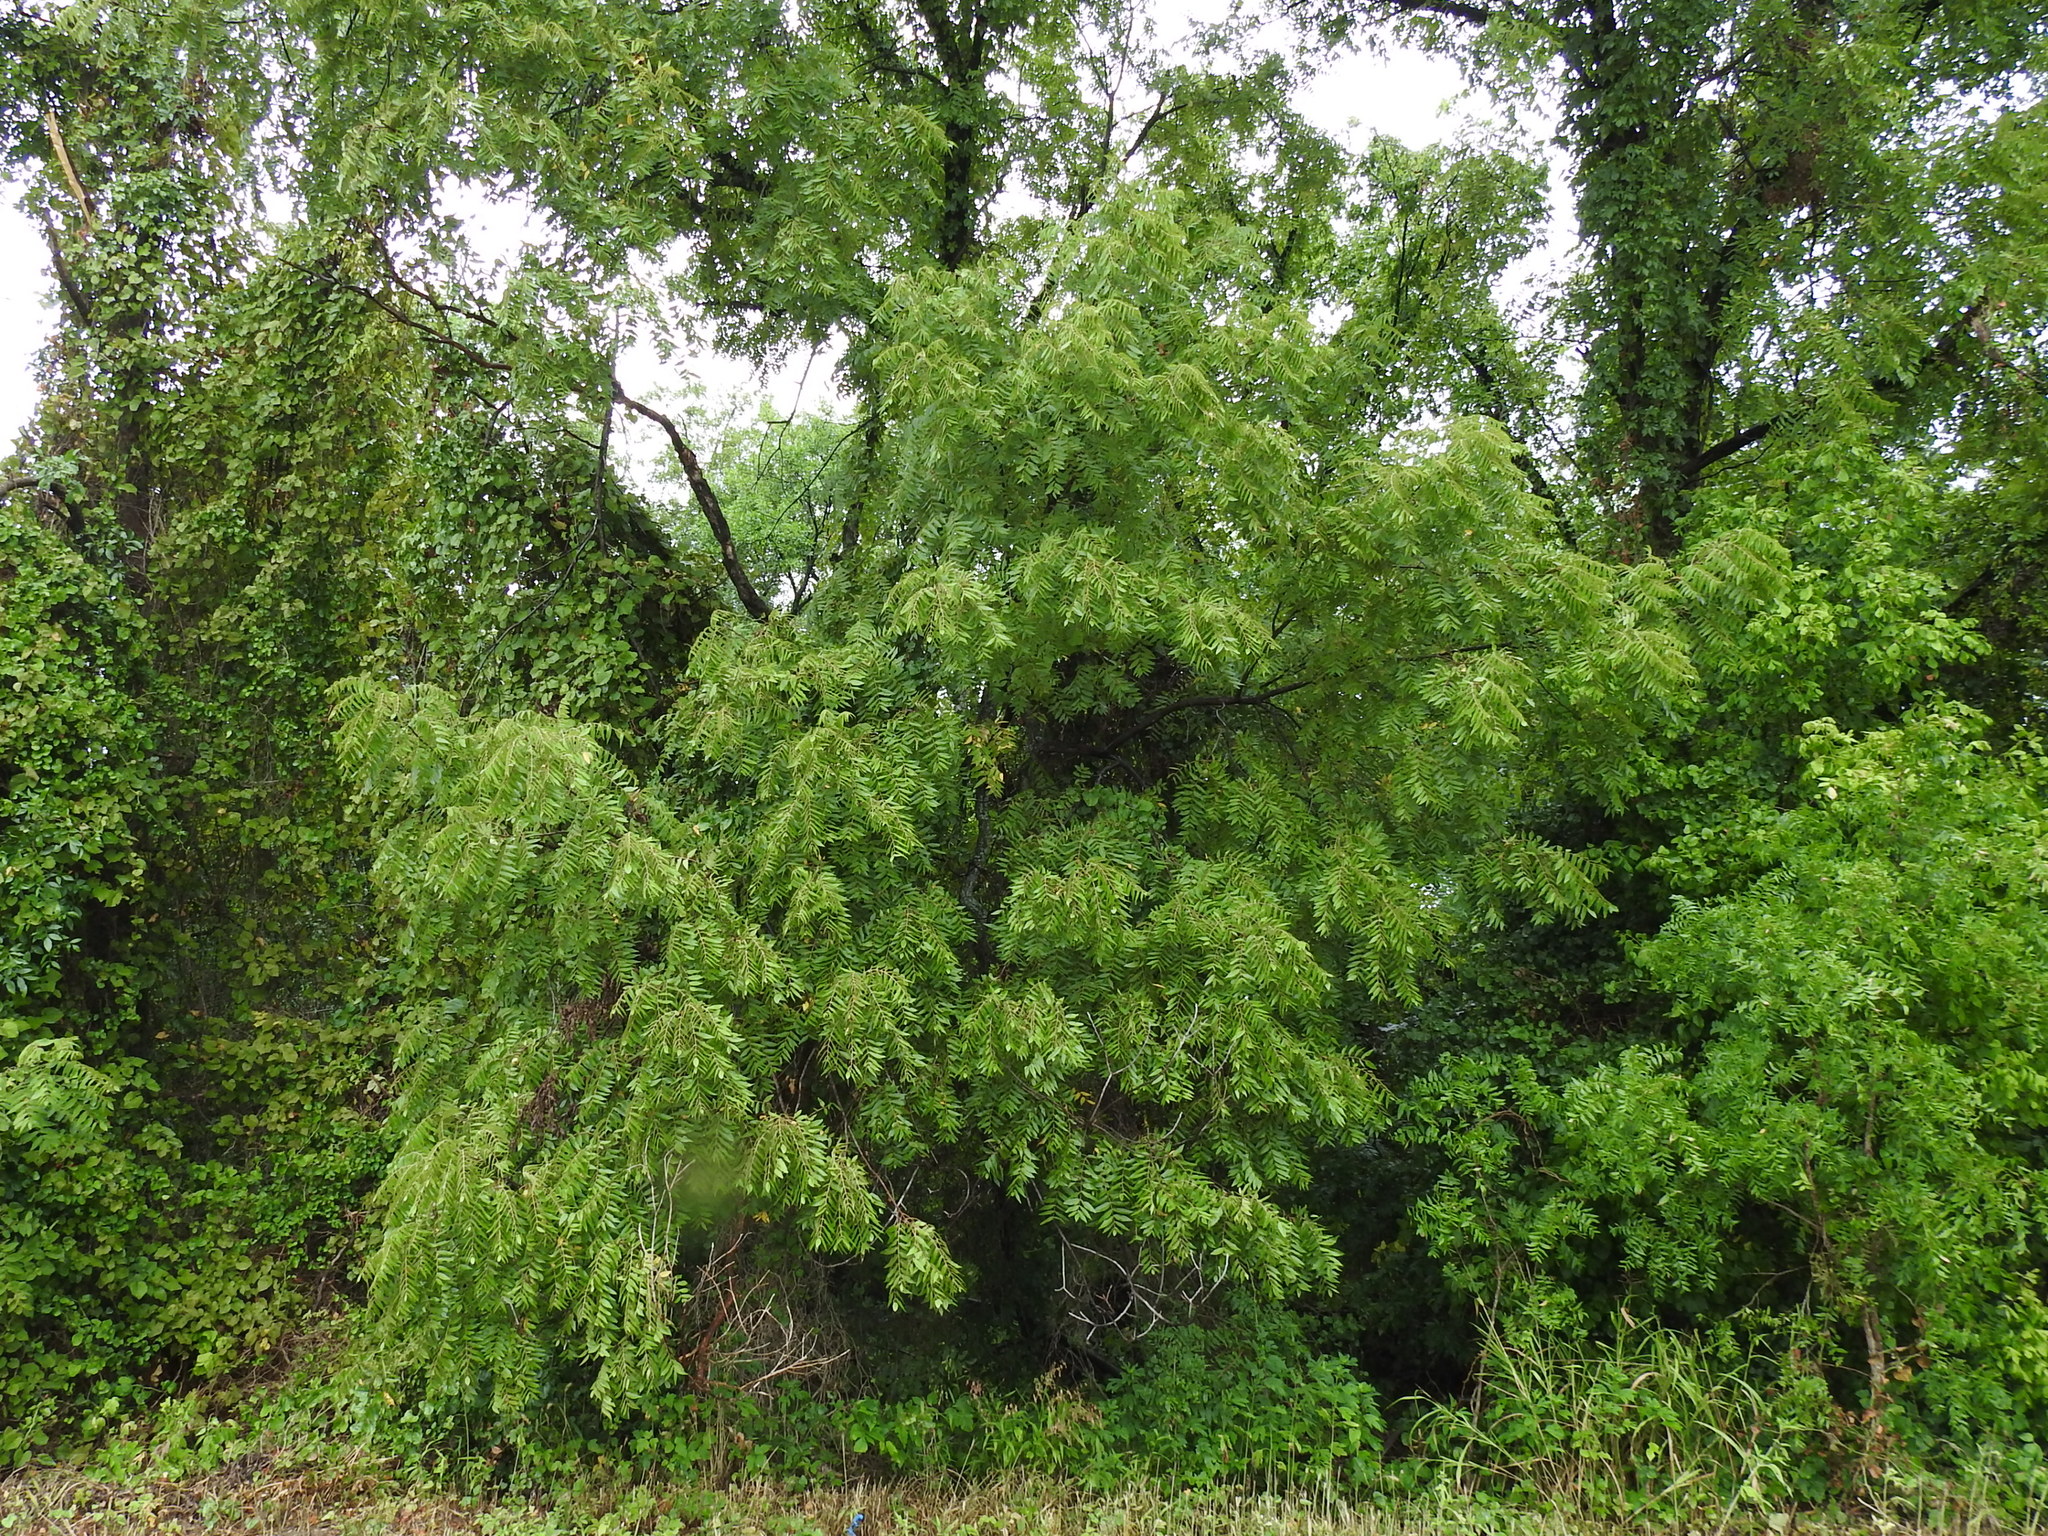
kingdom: Plantae
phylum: Tracheophyta
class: Magnoliopsida
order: Fagales
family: Juglandaceae
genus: Juglans
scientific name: Juglans nigra
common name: Black walnut
